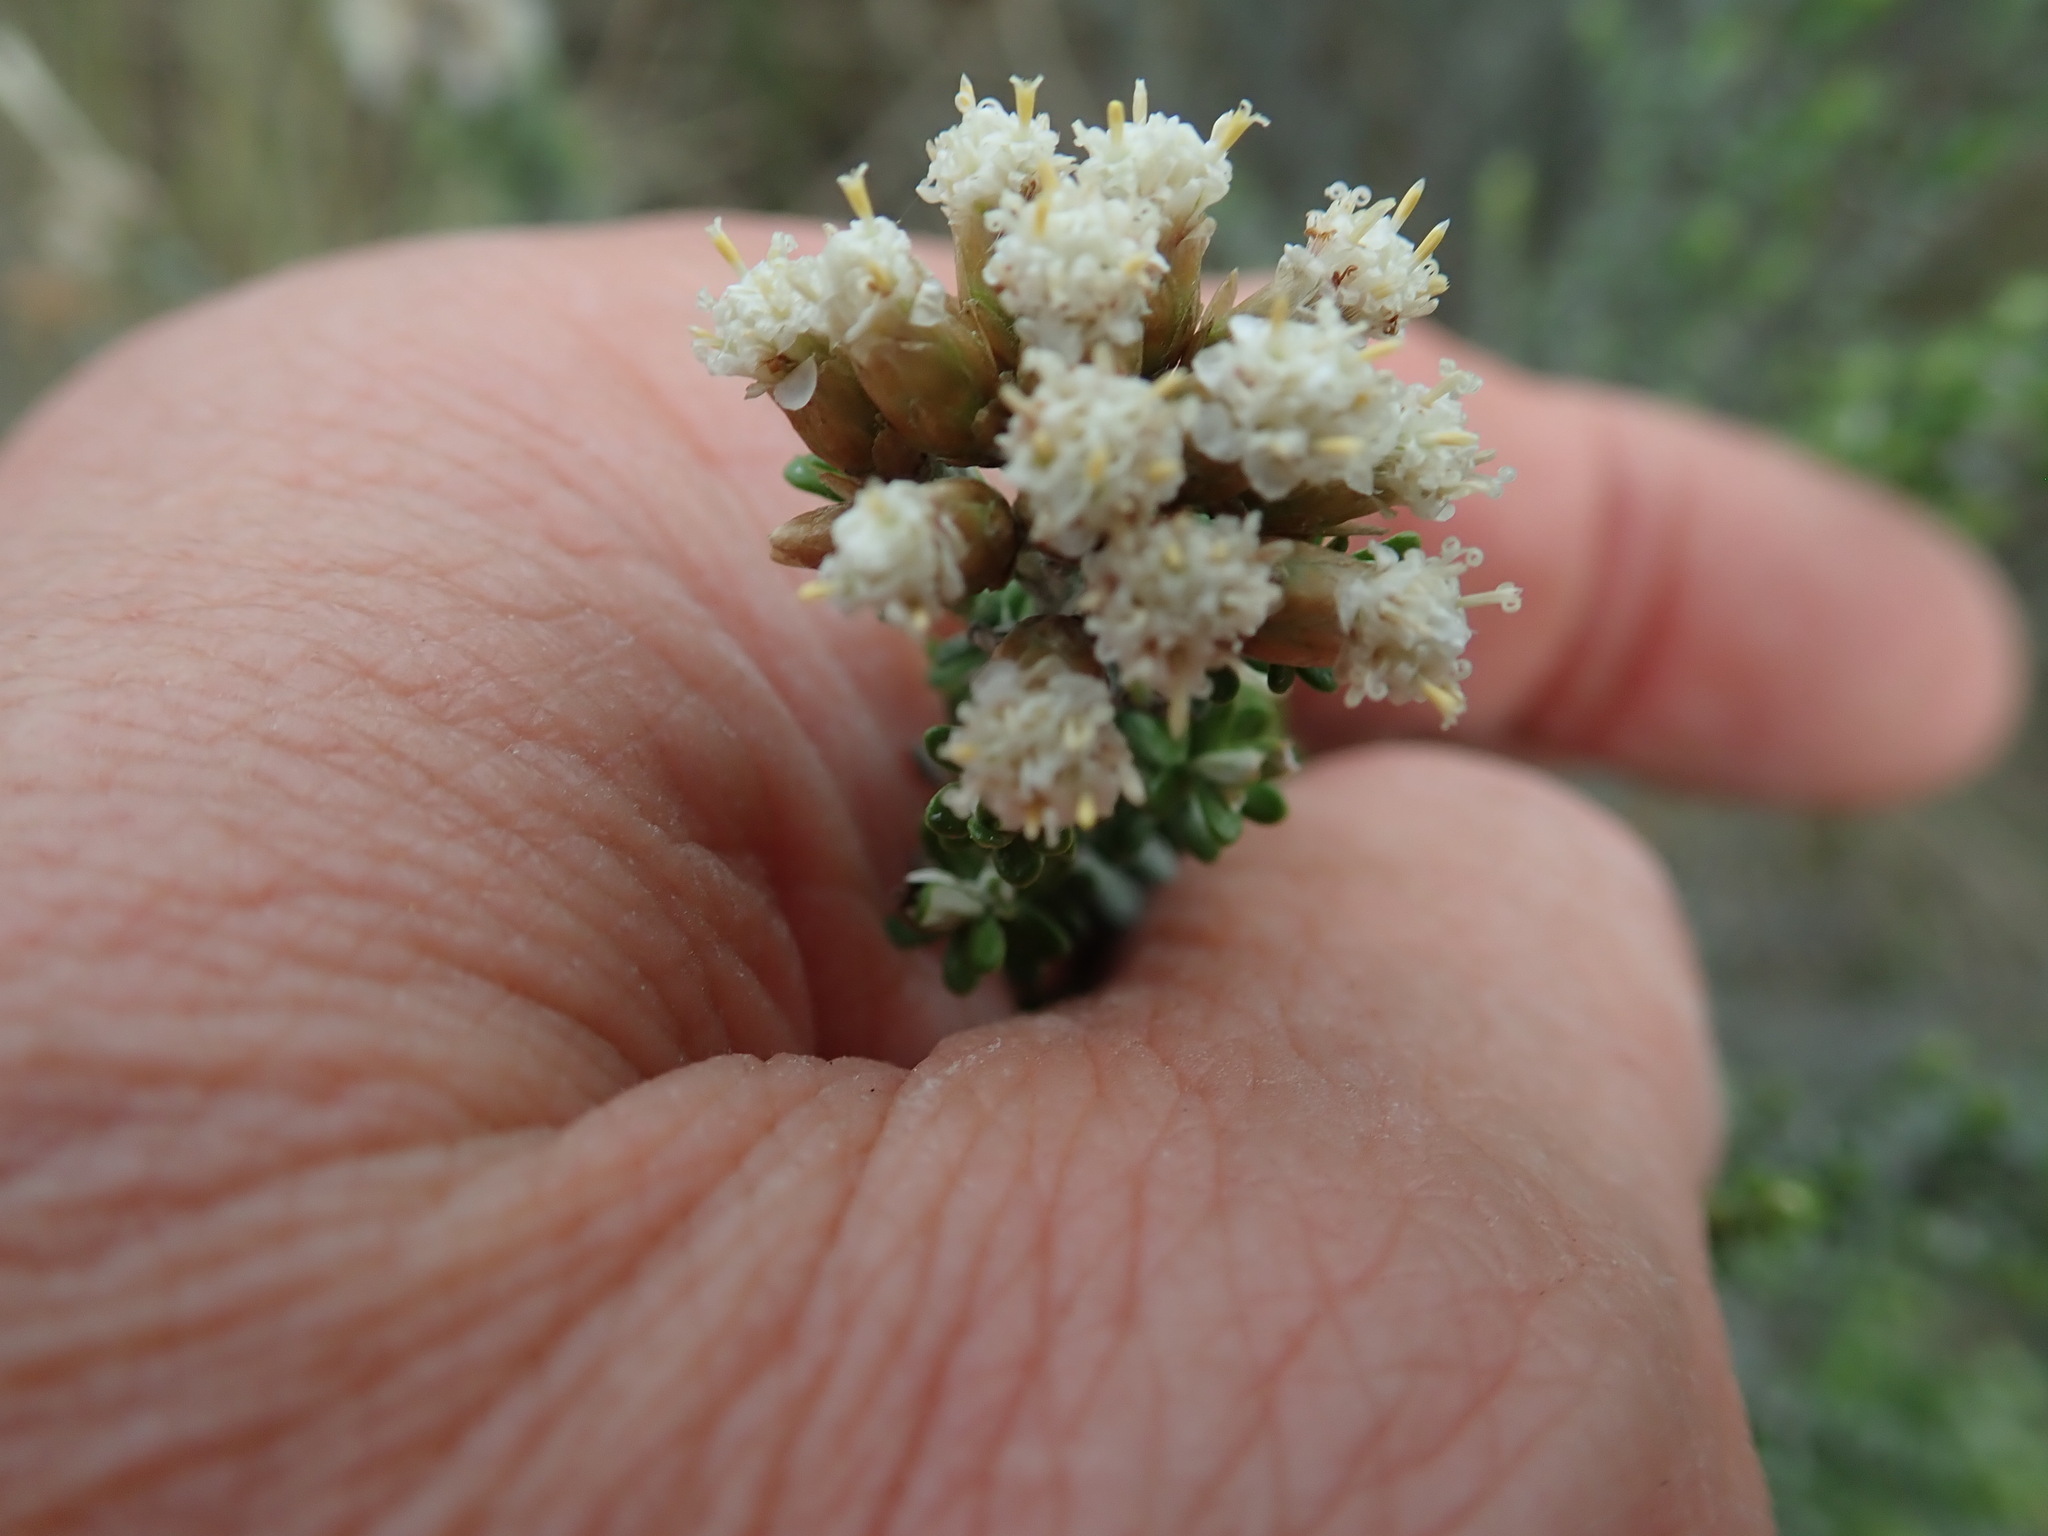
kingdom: Plantae
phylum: Tracheophyta
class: Magnoliopsida
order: Asterales
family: Asteraceae
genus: Ozothamnus
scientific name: Ozothamnus leptophyllus
